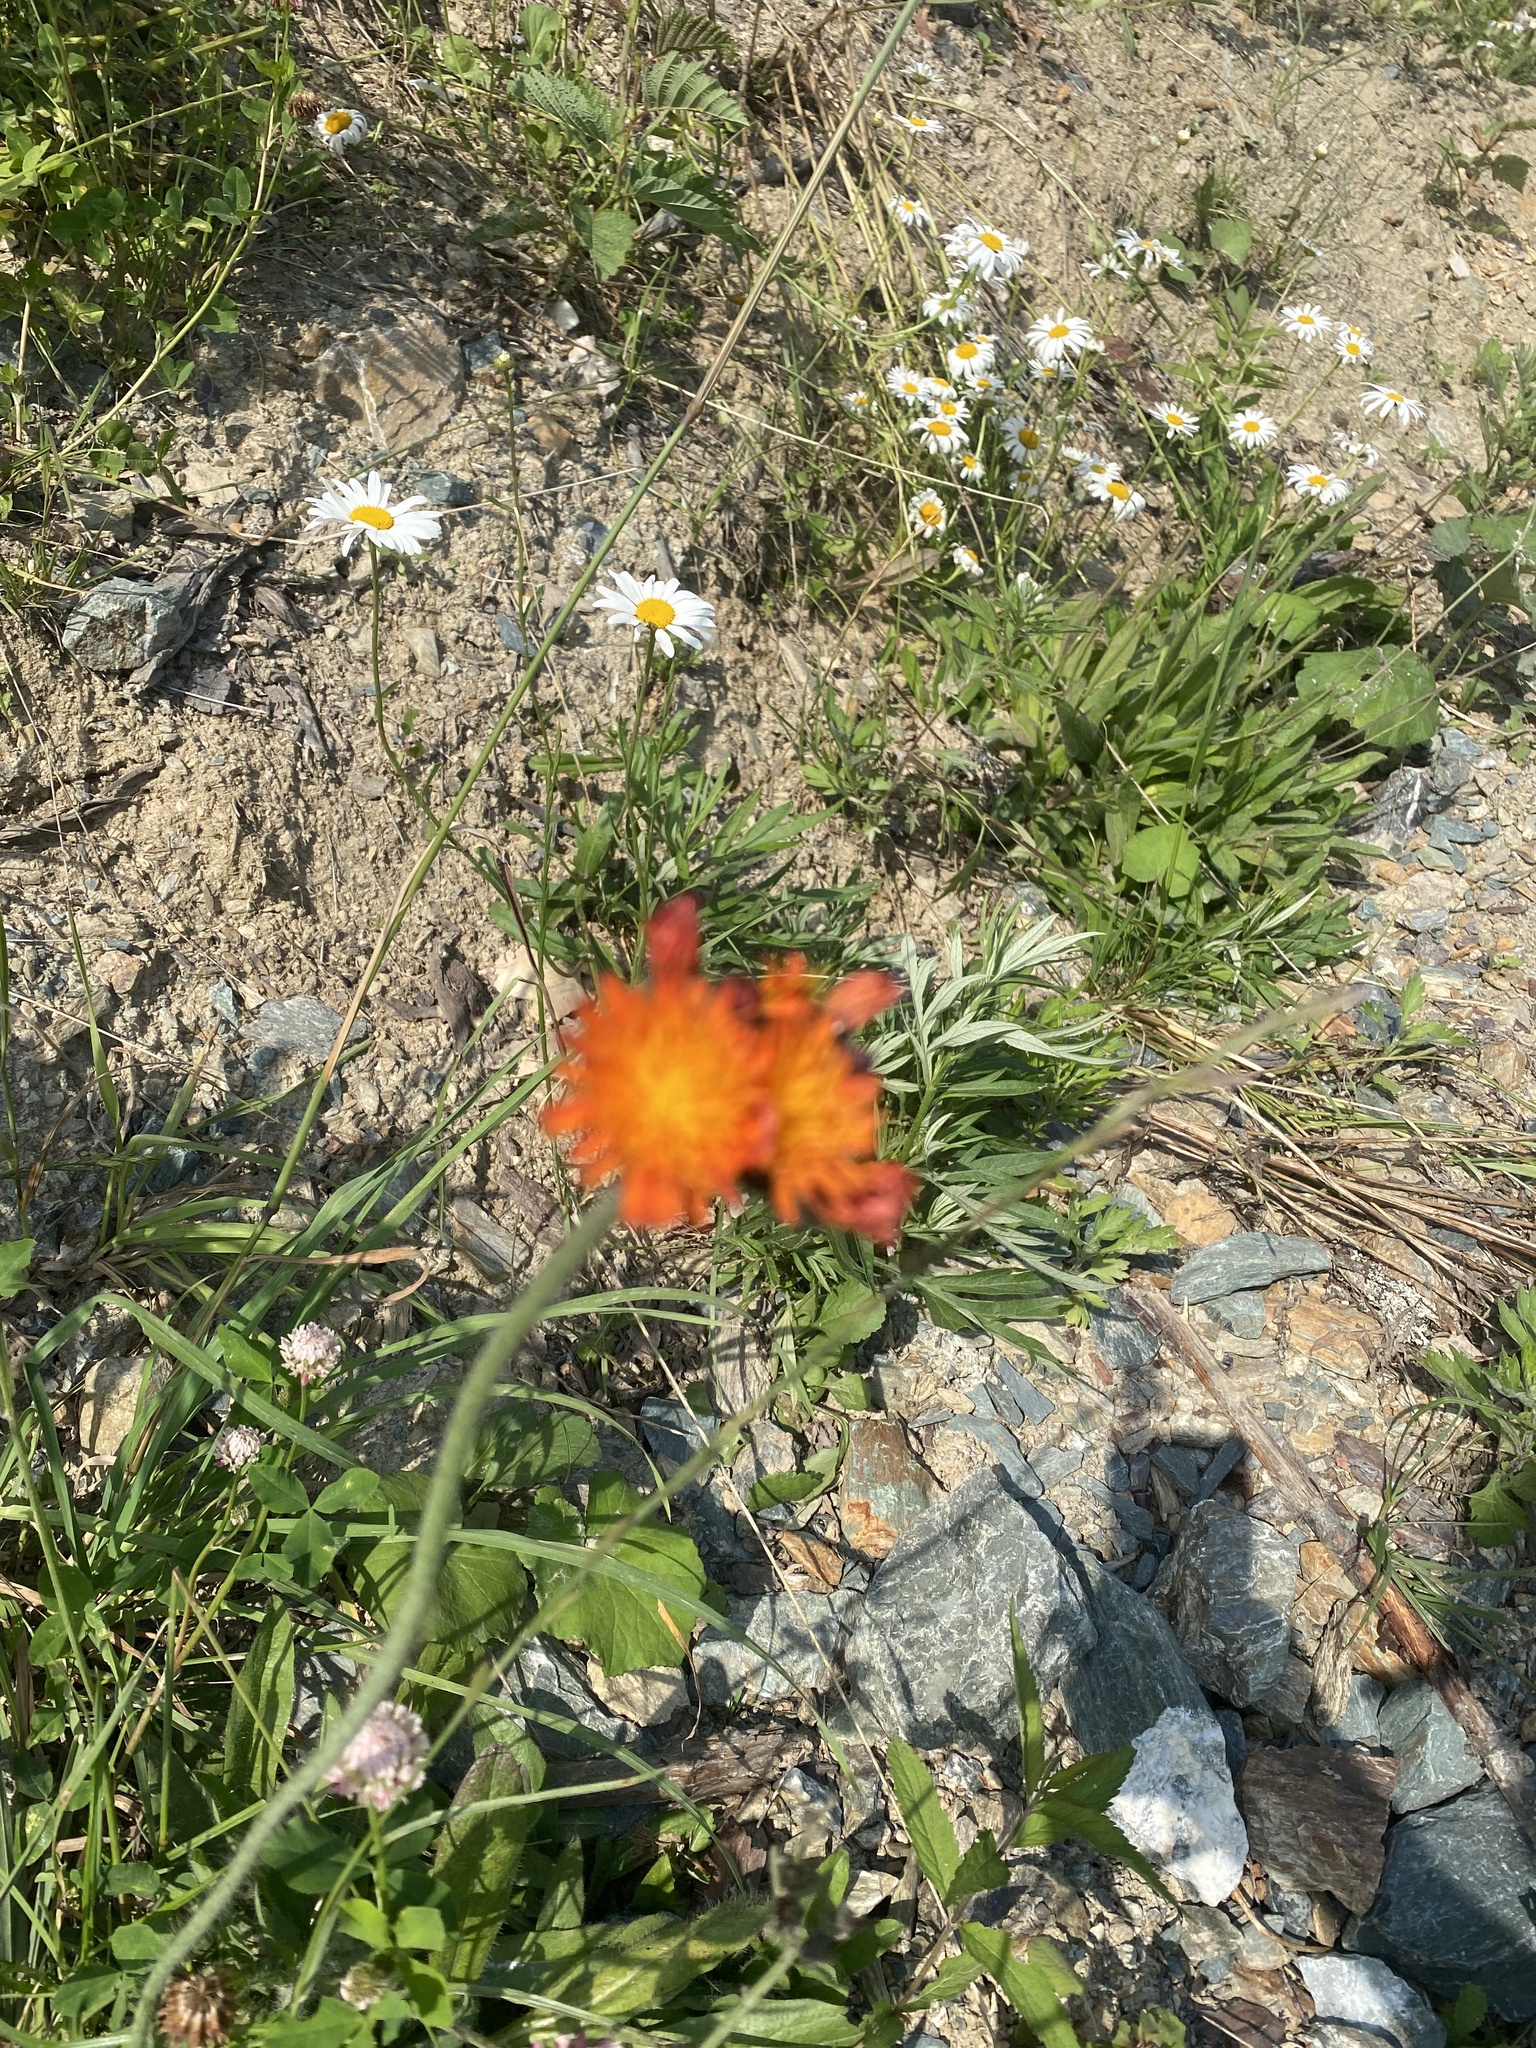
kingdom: Plantae
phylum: Tracheophyta
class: Magnoliopsida
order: Asterales
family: Asteraceae
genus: Pilosella
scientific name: Pilosella aurantiaca
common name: Fox-and-cubs
